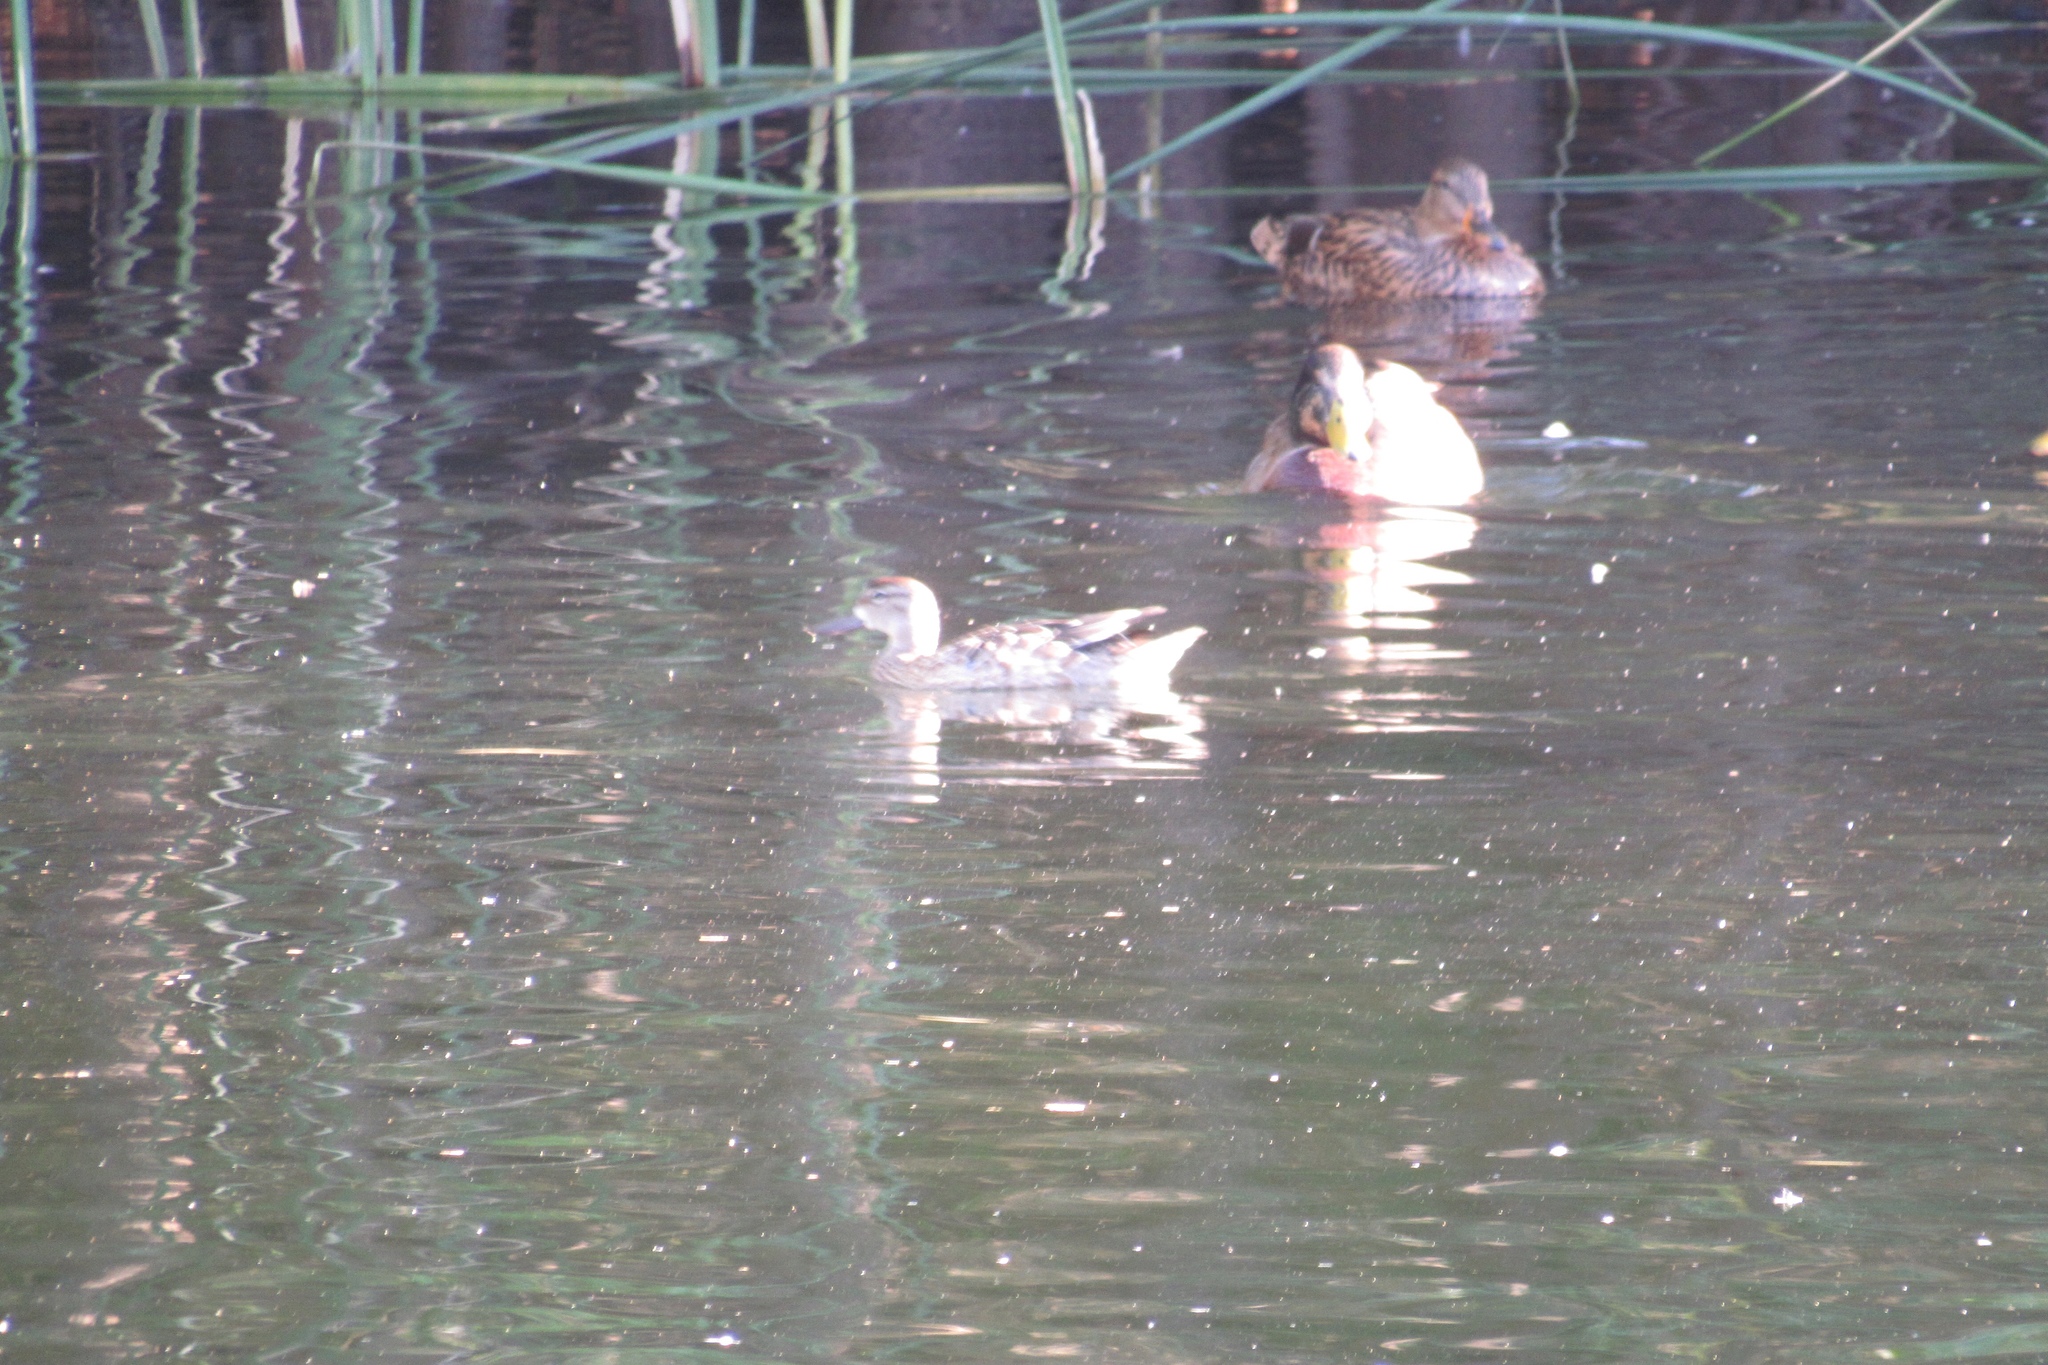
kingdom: Animalia
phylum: Chordata
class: Aves
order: Anseriformes
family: Anatidae
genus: Spatula
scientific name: Spatula discors
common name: Blue-winged teal
